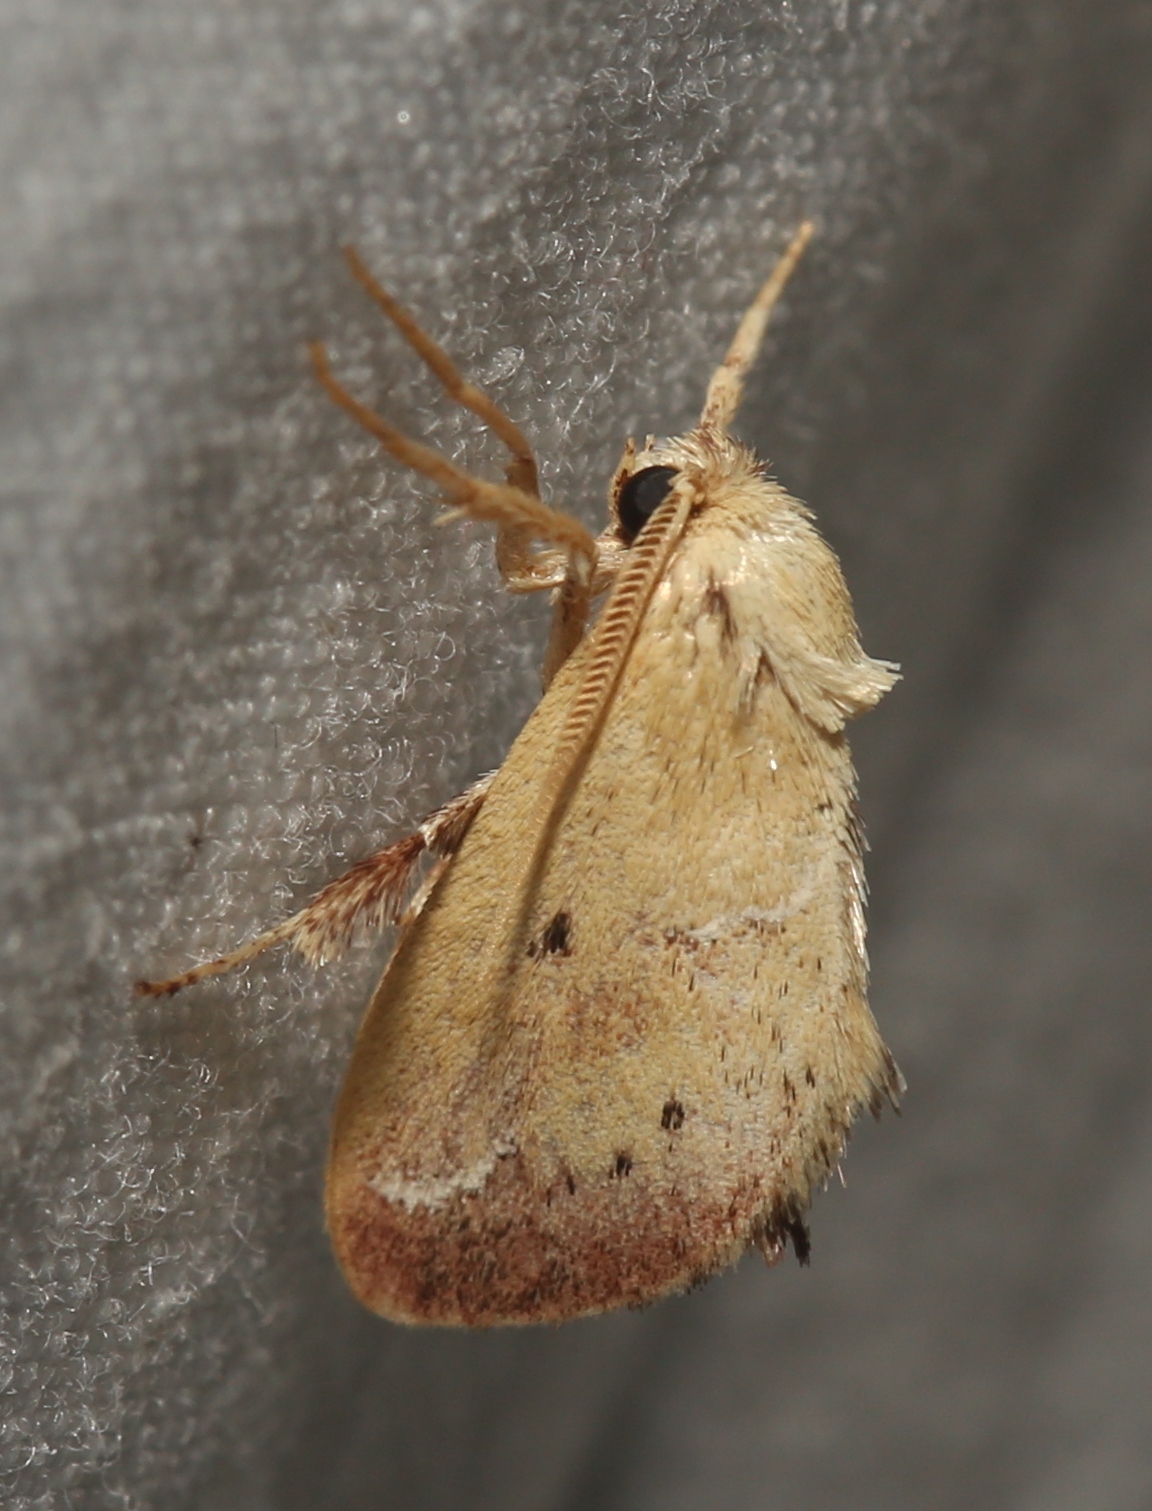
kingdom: Animalia
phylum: Arthropoda
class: Insecta
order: Lepidoptera
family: Limacodidae
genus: Adoneta
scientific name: Adoneta bicaudata
